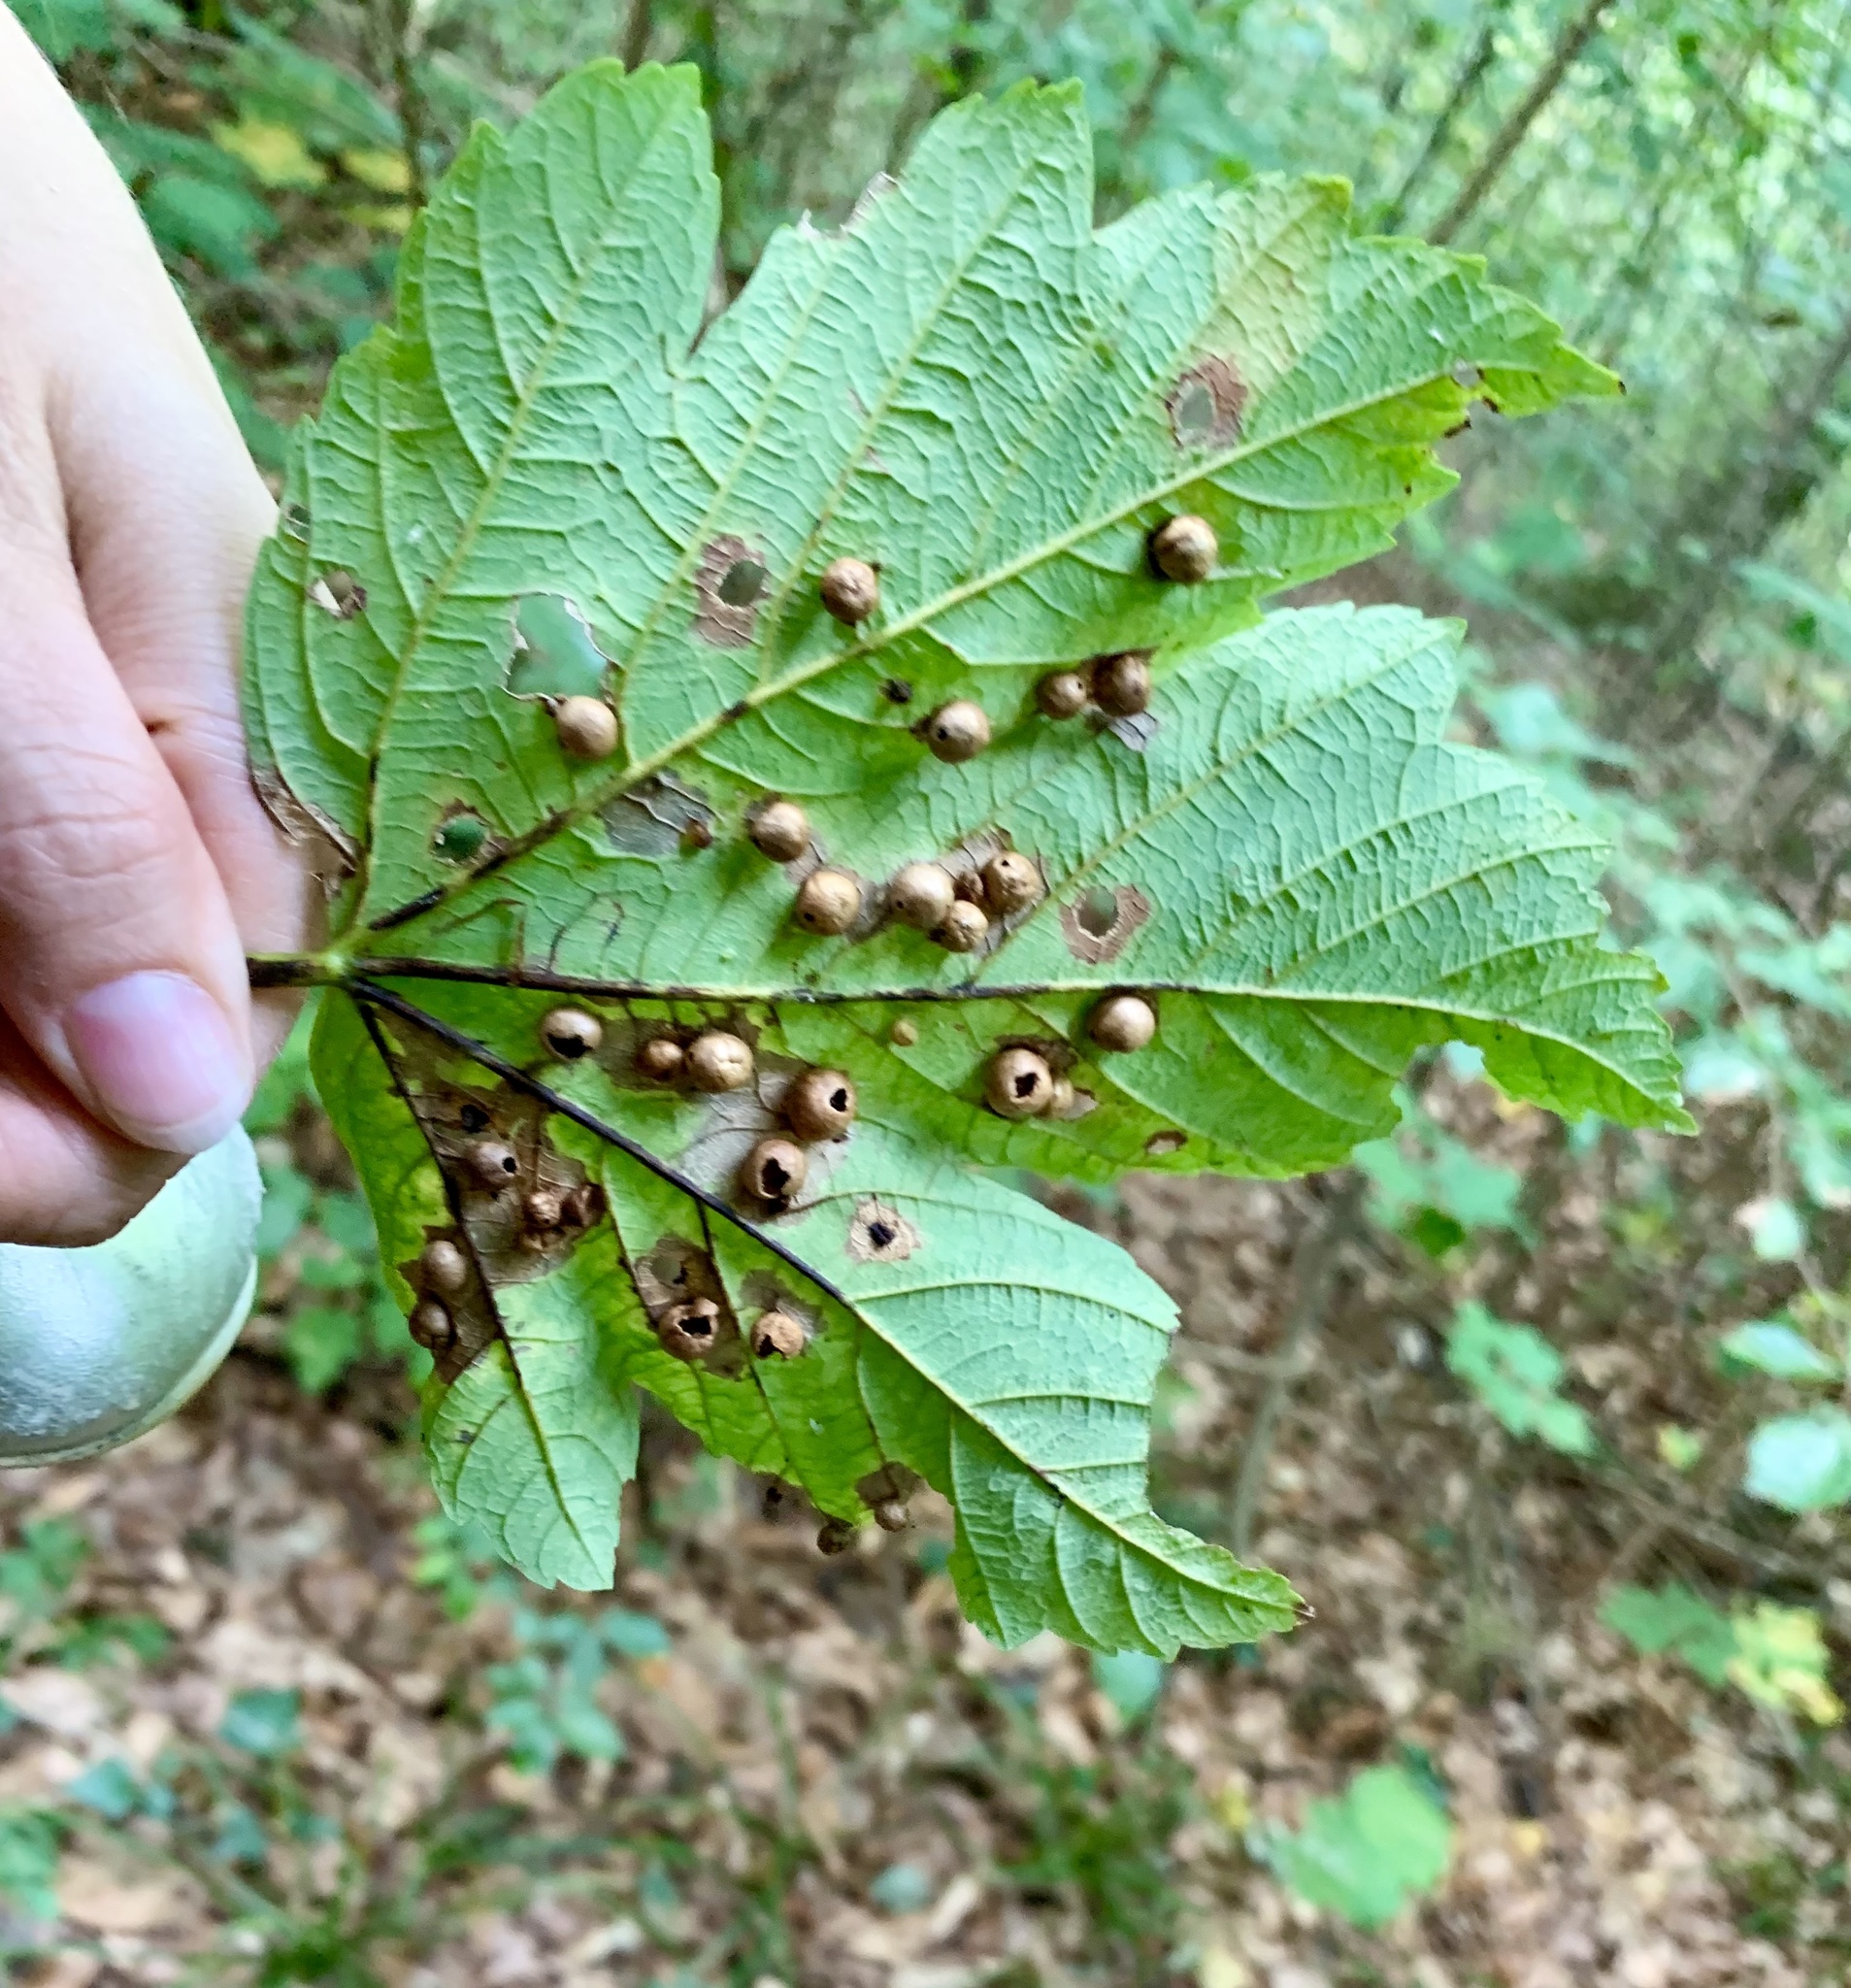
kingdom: Animalia
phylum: Arthropoda
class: Insecta
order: Hymenoptera
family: Cynipidae
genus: Pediaspis
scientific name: Pediaspis aceris
